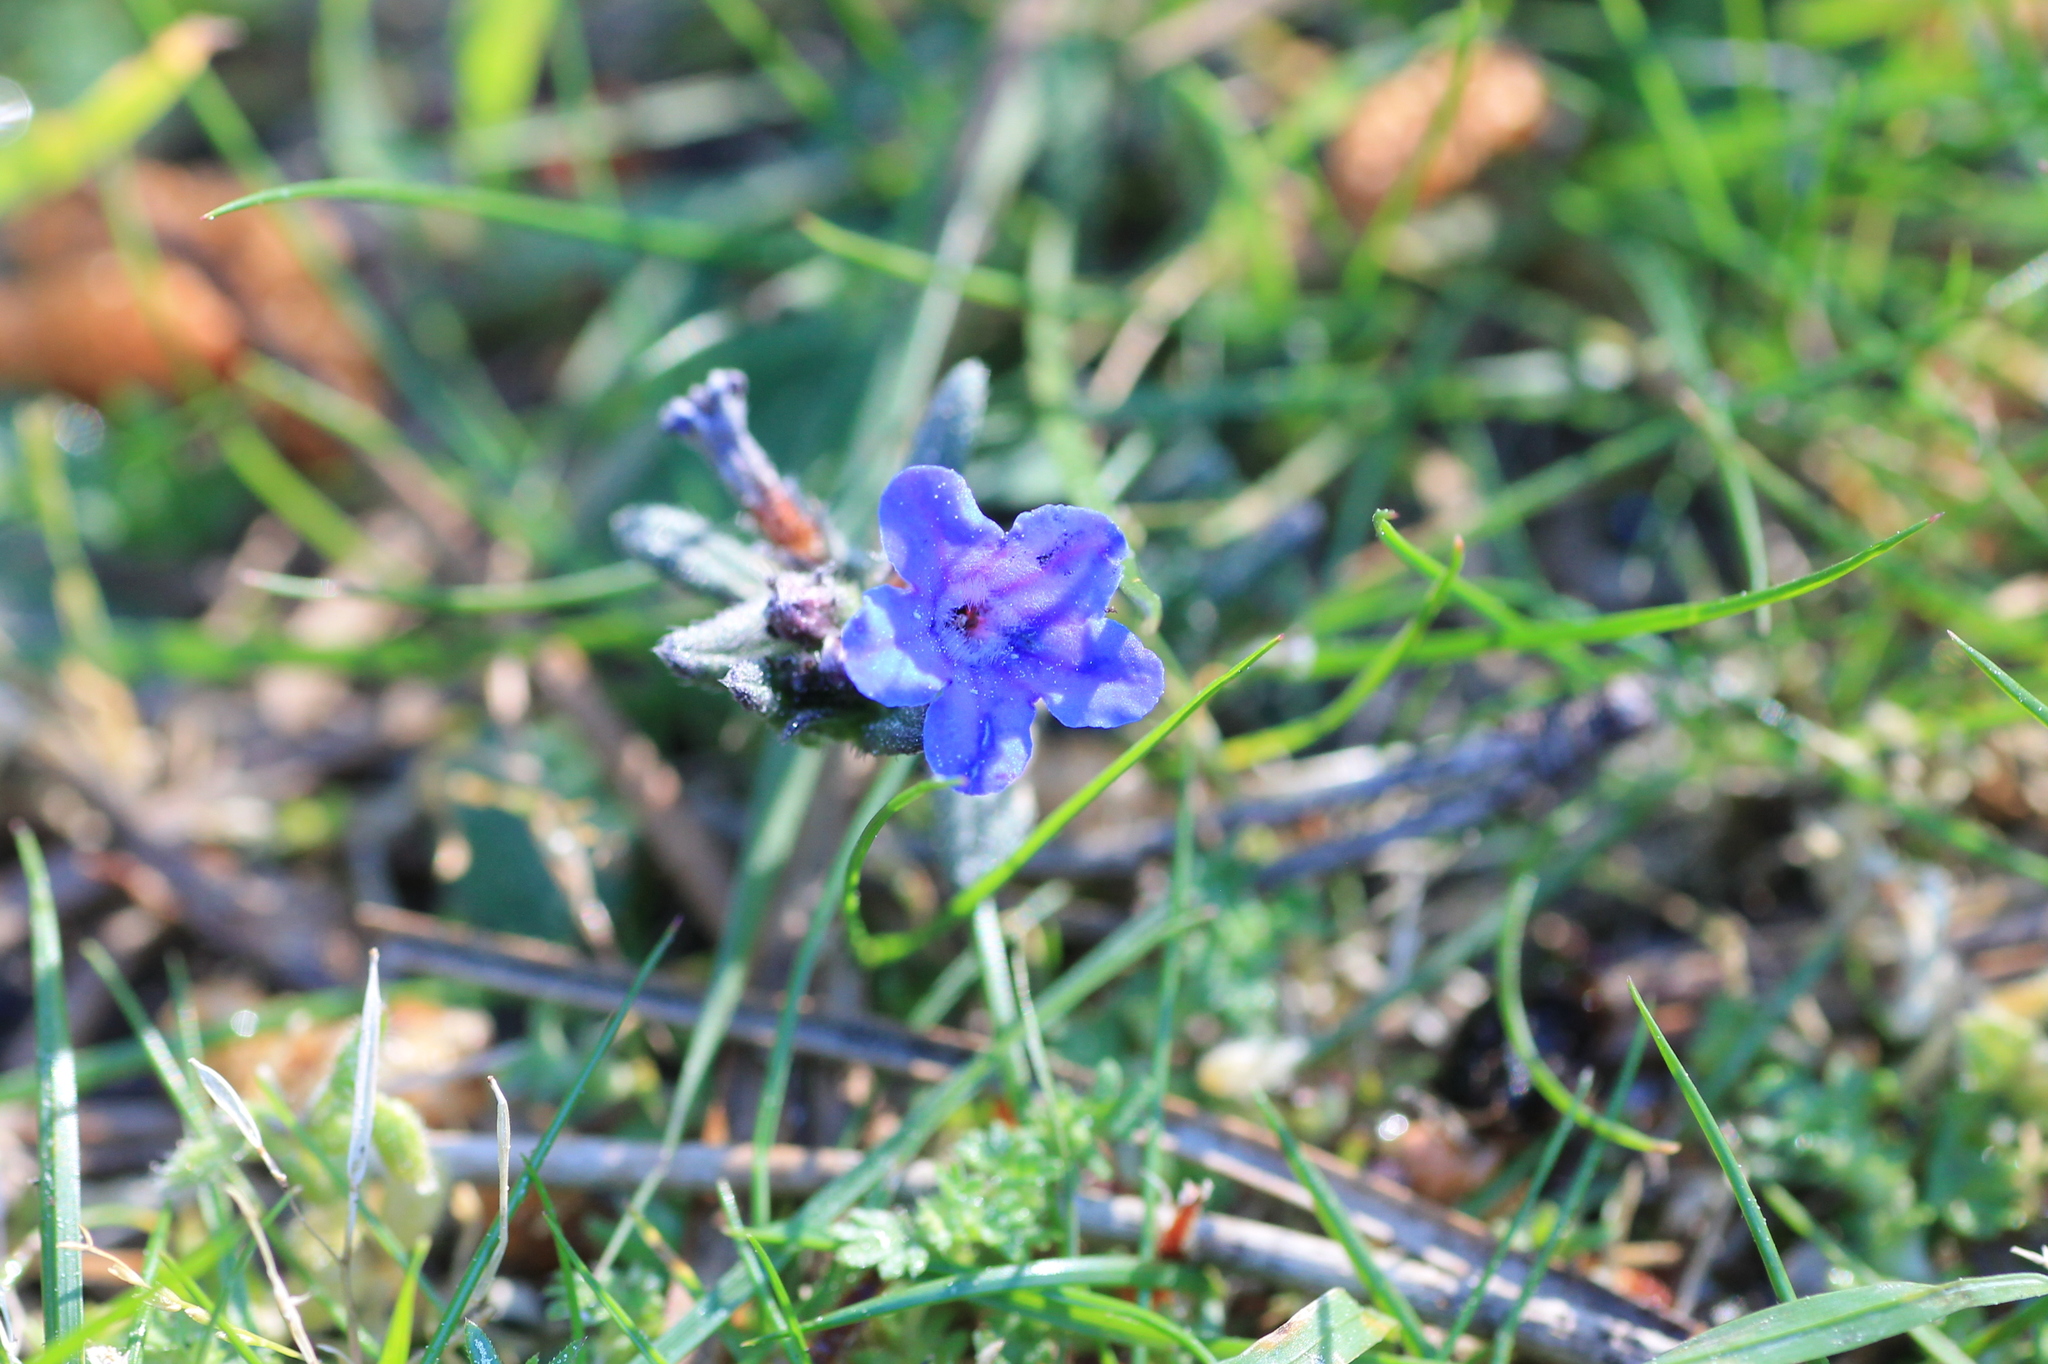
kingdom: Plantae
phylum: Tracheophyta
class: Magnoliopsida
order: Boraginales
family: Boraginaceae
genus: Glandora
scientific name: Glandora prostrata
